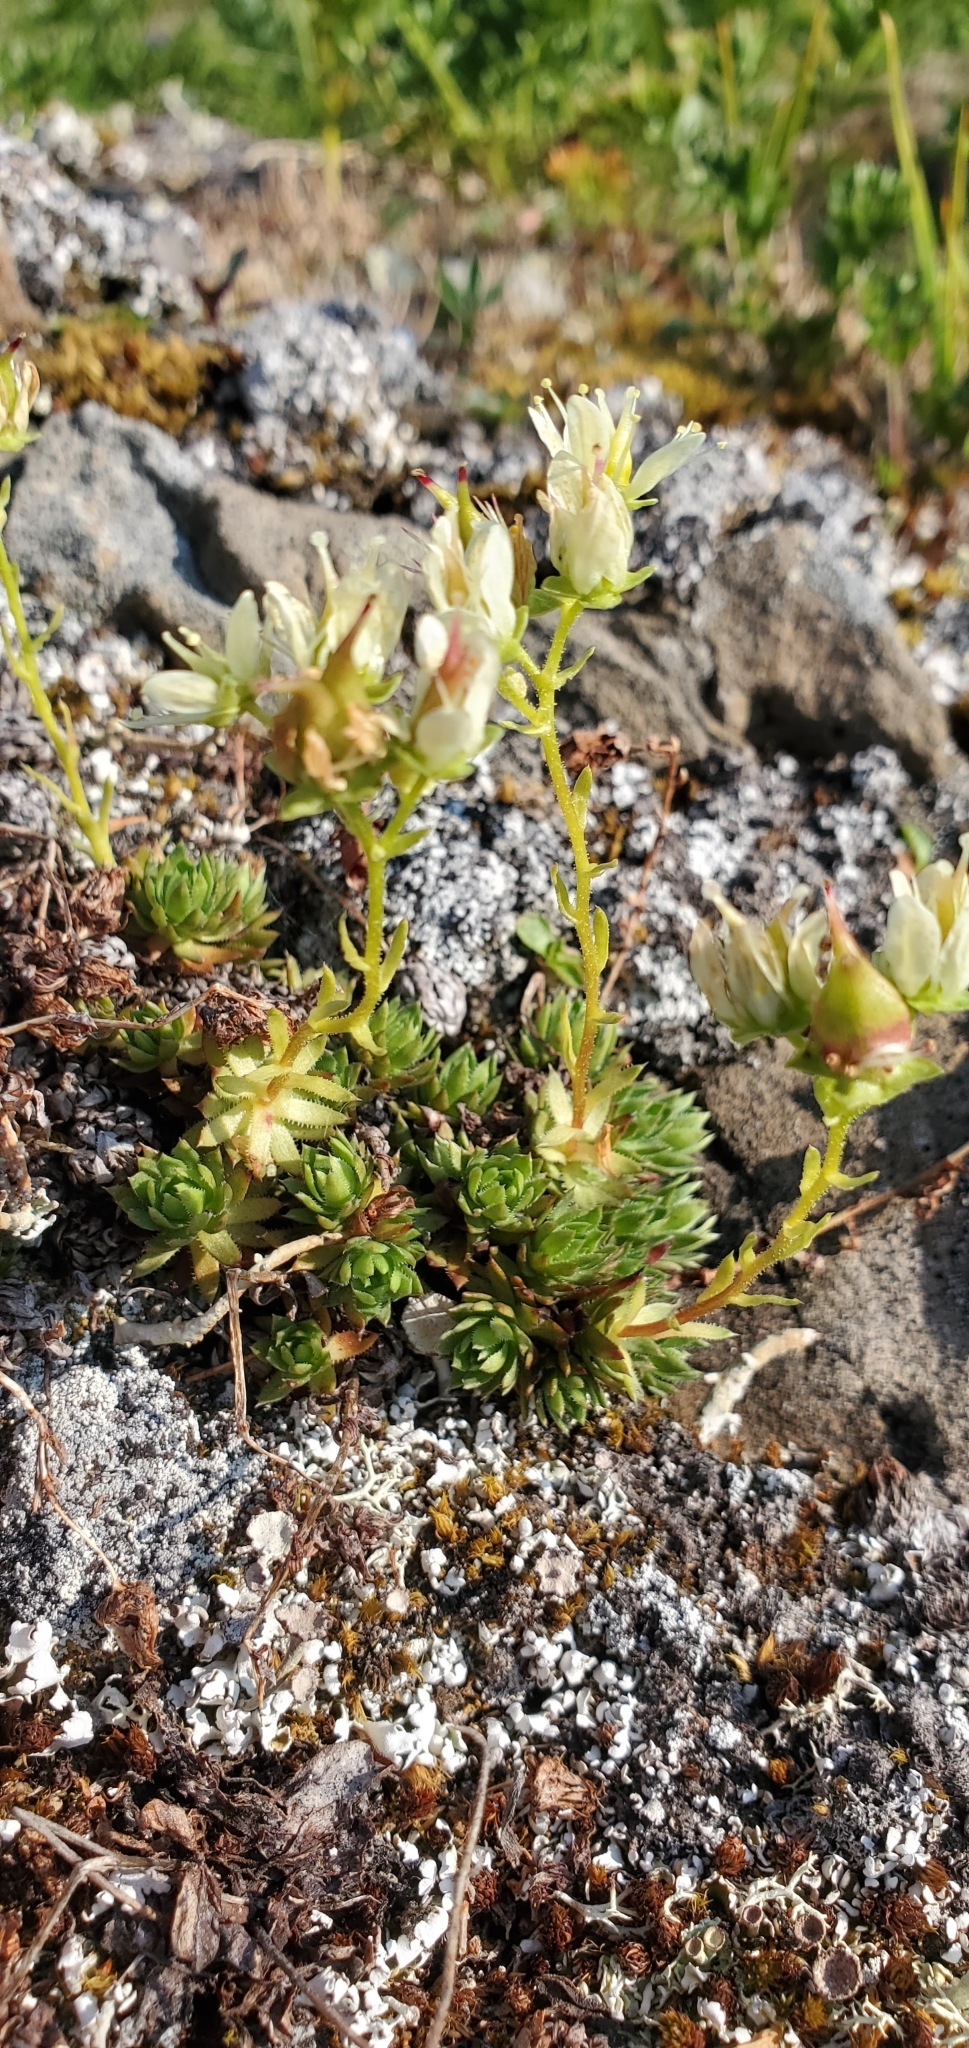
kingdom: Plantae
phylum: Tracheophyta
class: Magnoliopsida
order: Saxifragales
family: Saxifragaceae
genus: Saxifraga
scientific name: Saxifraga bronchialis
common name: Matted saxifrage
